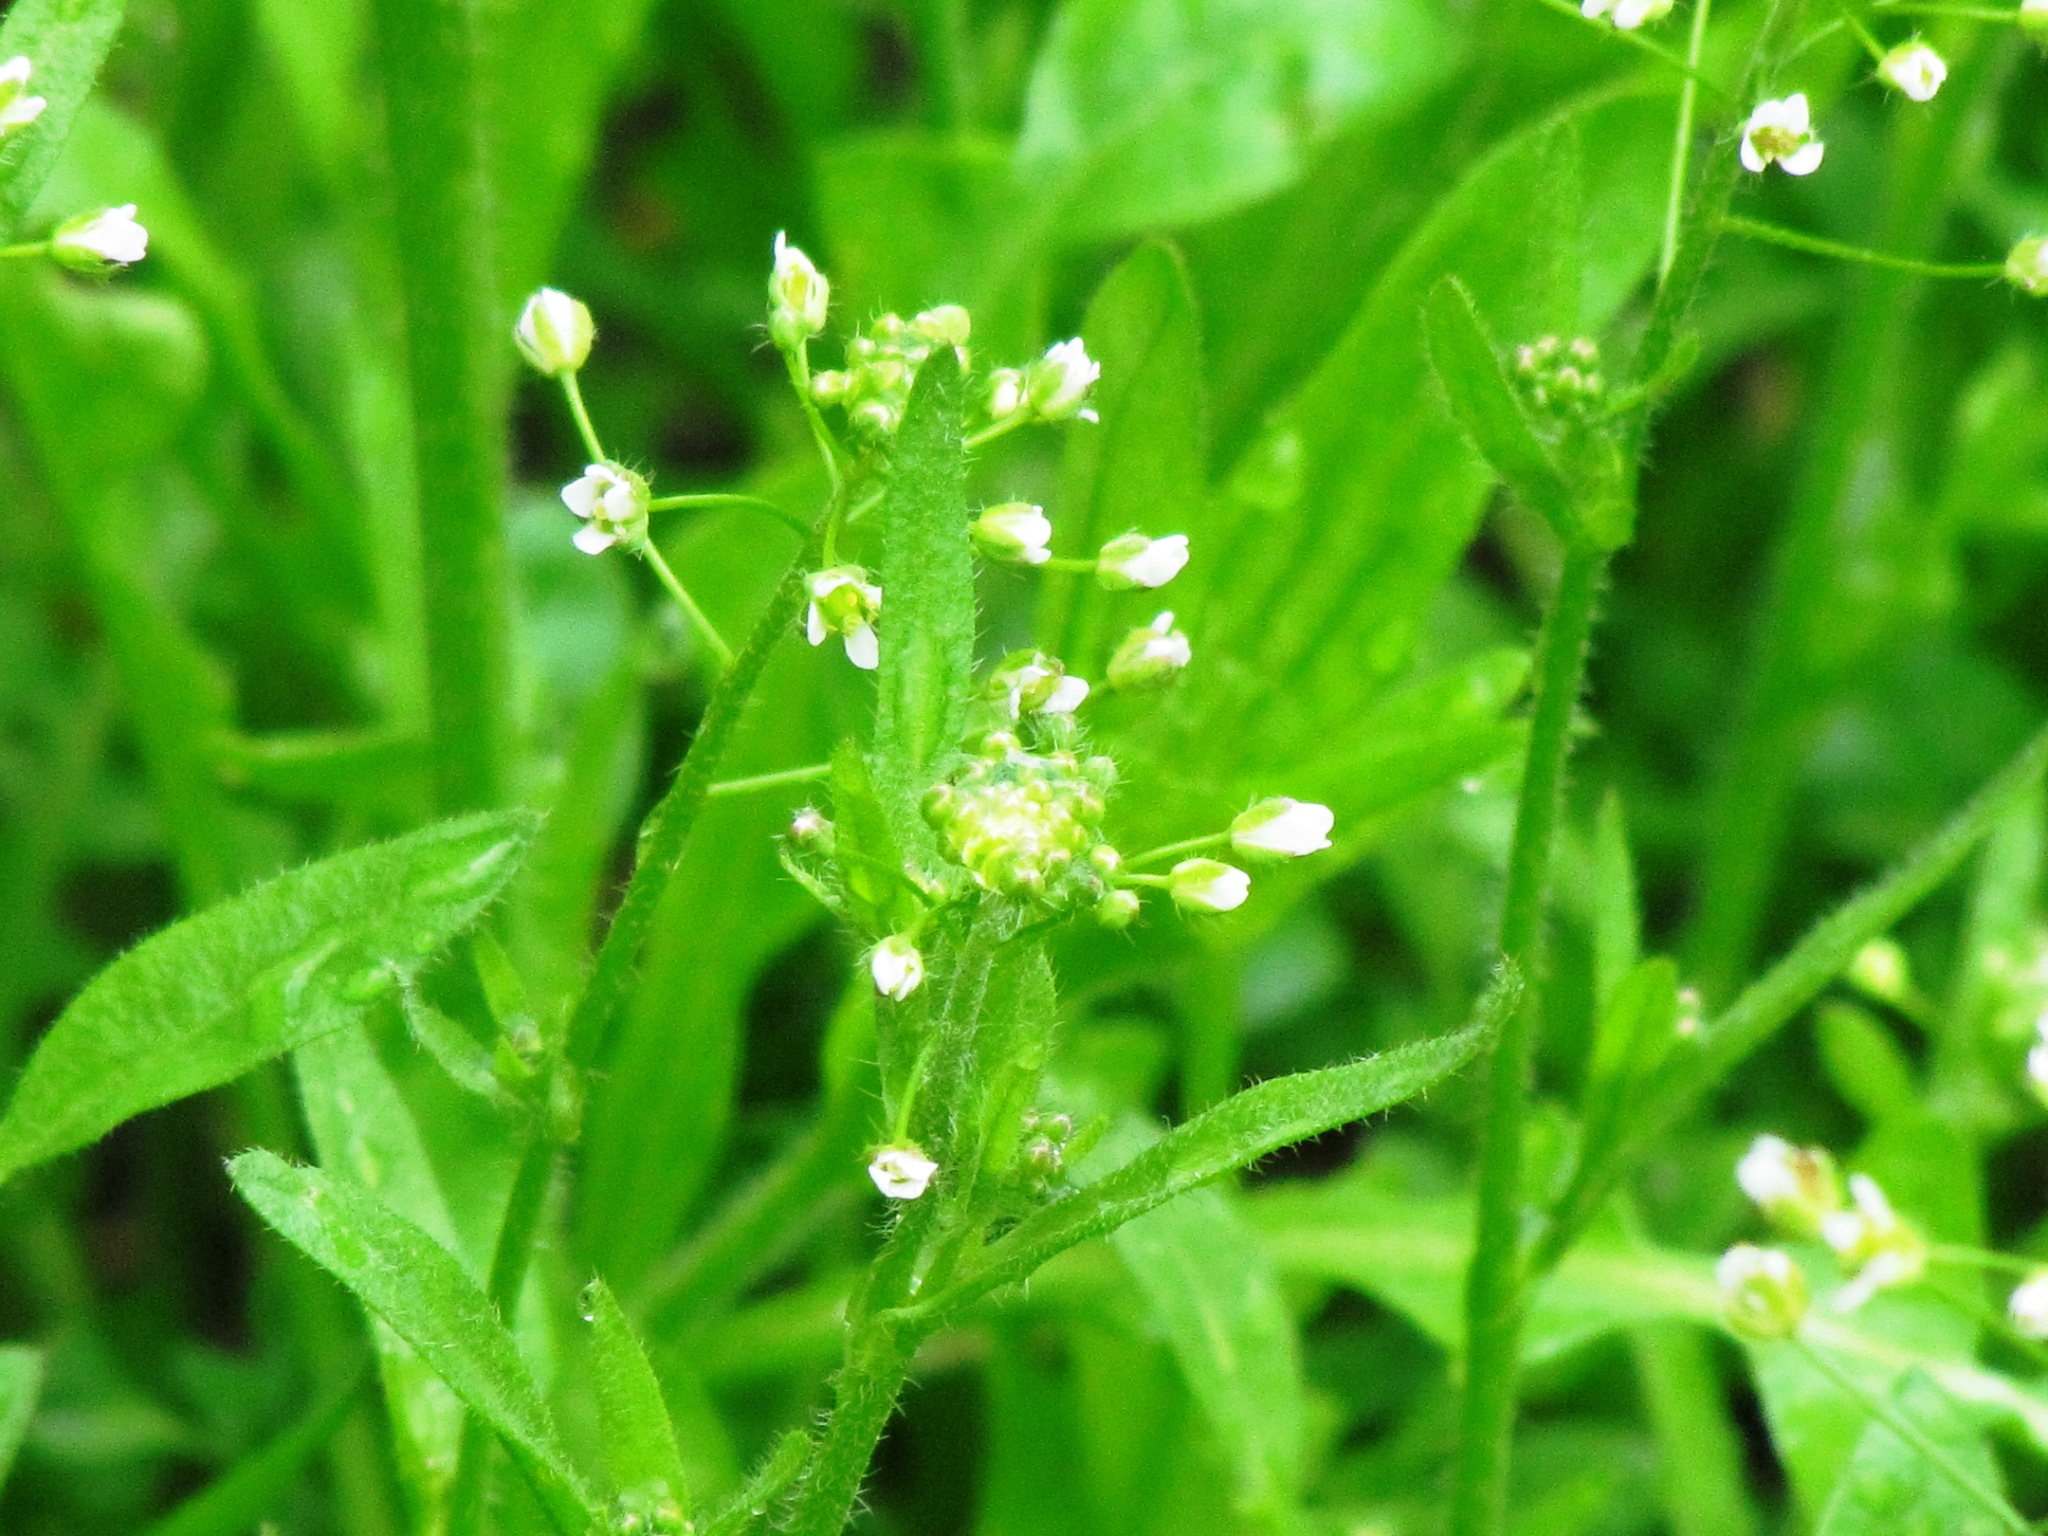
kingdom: Plantae
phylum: Tracheophyta
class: Magnoliopsida
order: Brassicales
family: Brassicaceae
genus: Capsella
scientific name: Capsella bursa-pastoris
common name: Shepherd's purse
